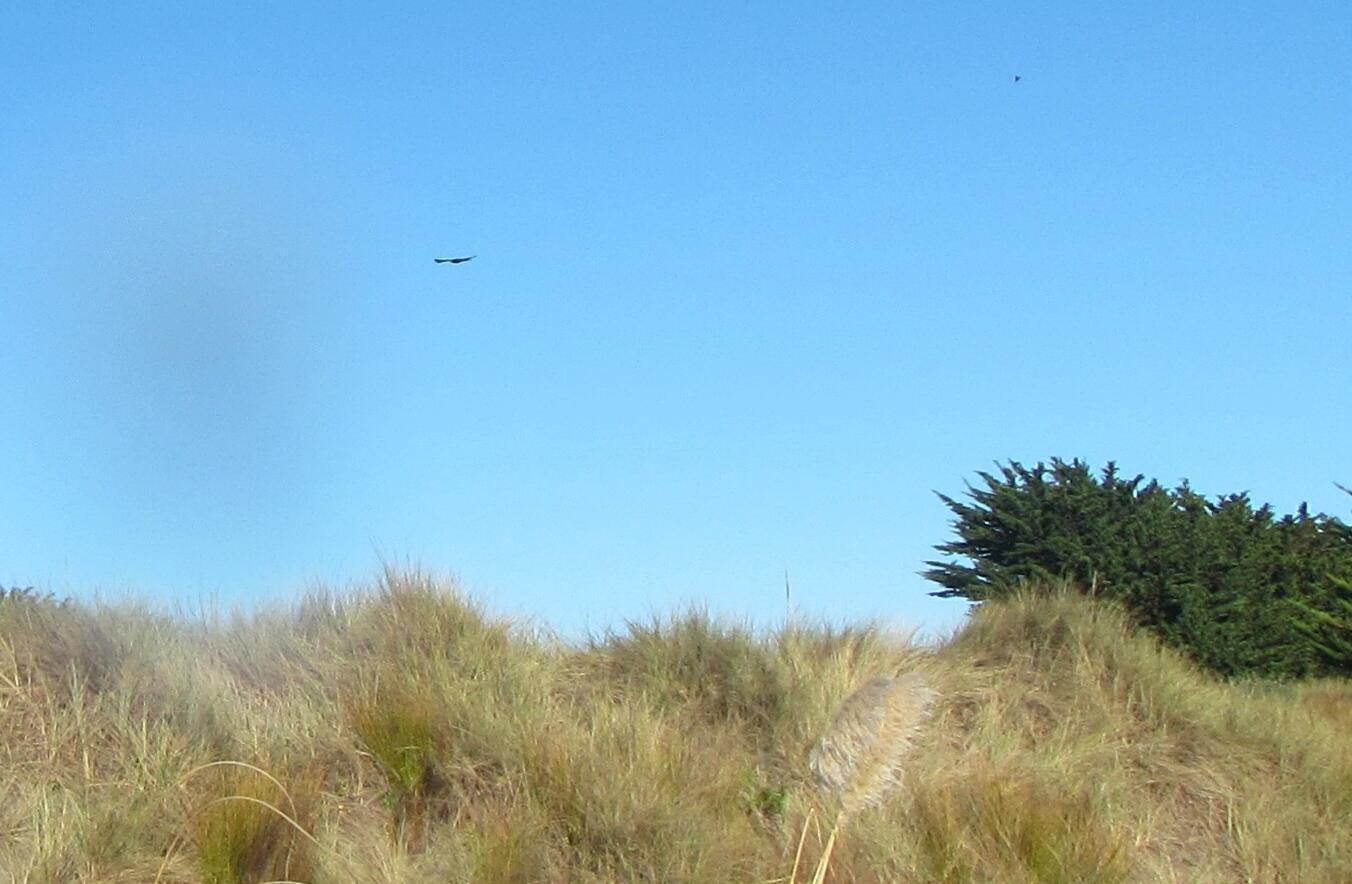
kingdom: Animalia
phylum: Chordata
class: Aves
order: Accipitriformes
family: Accipitridae
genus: Circus
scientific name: Circus approximans
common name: Swamp harrier
